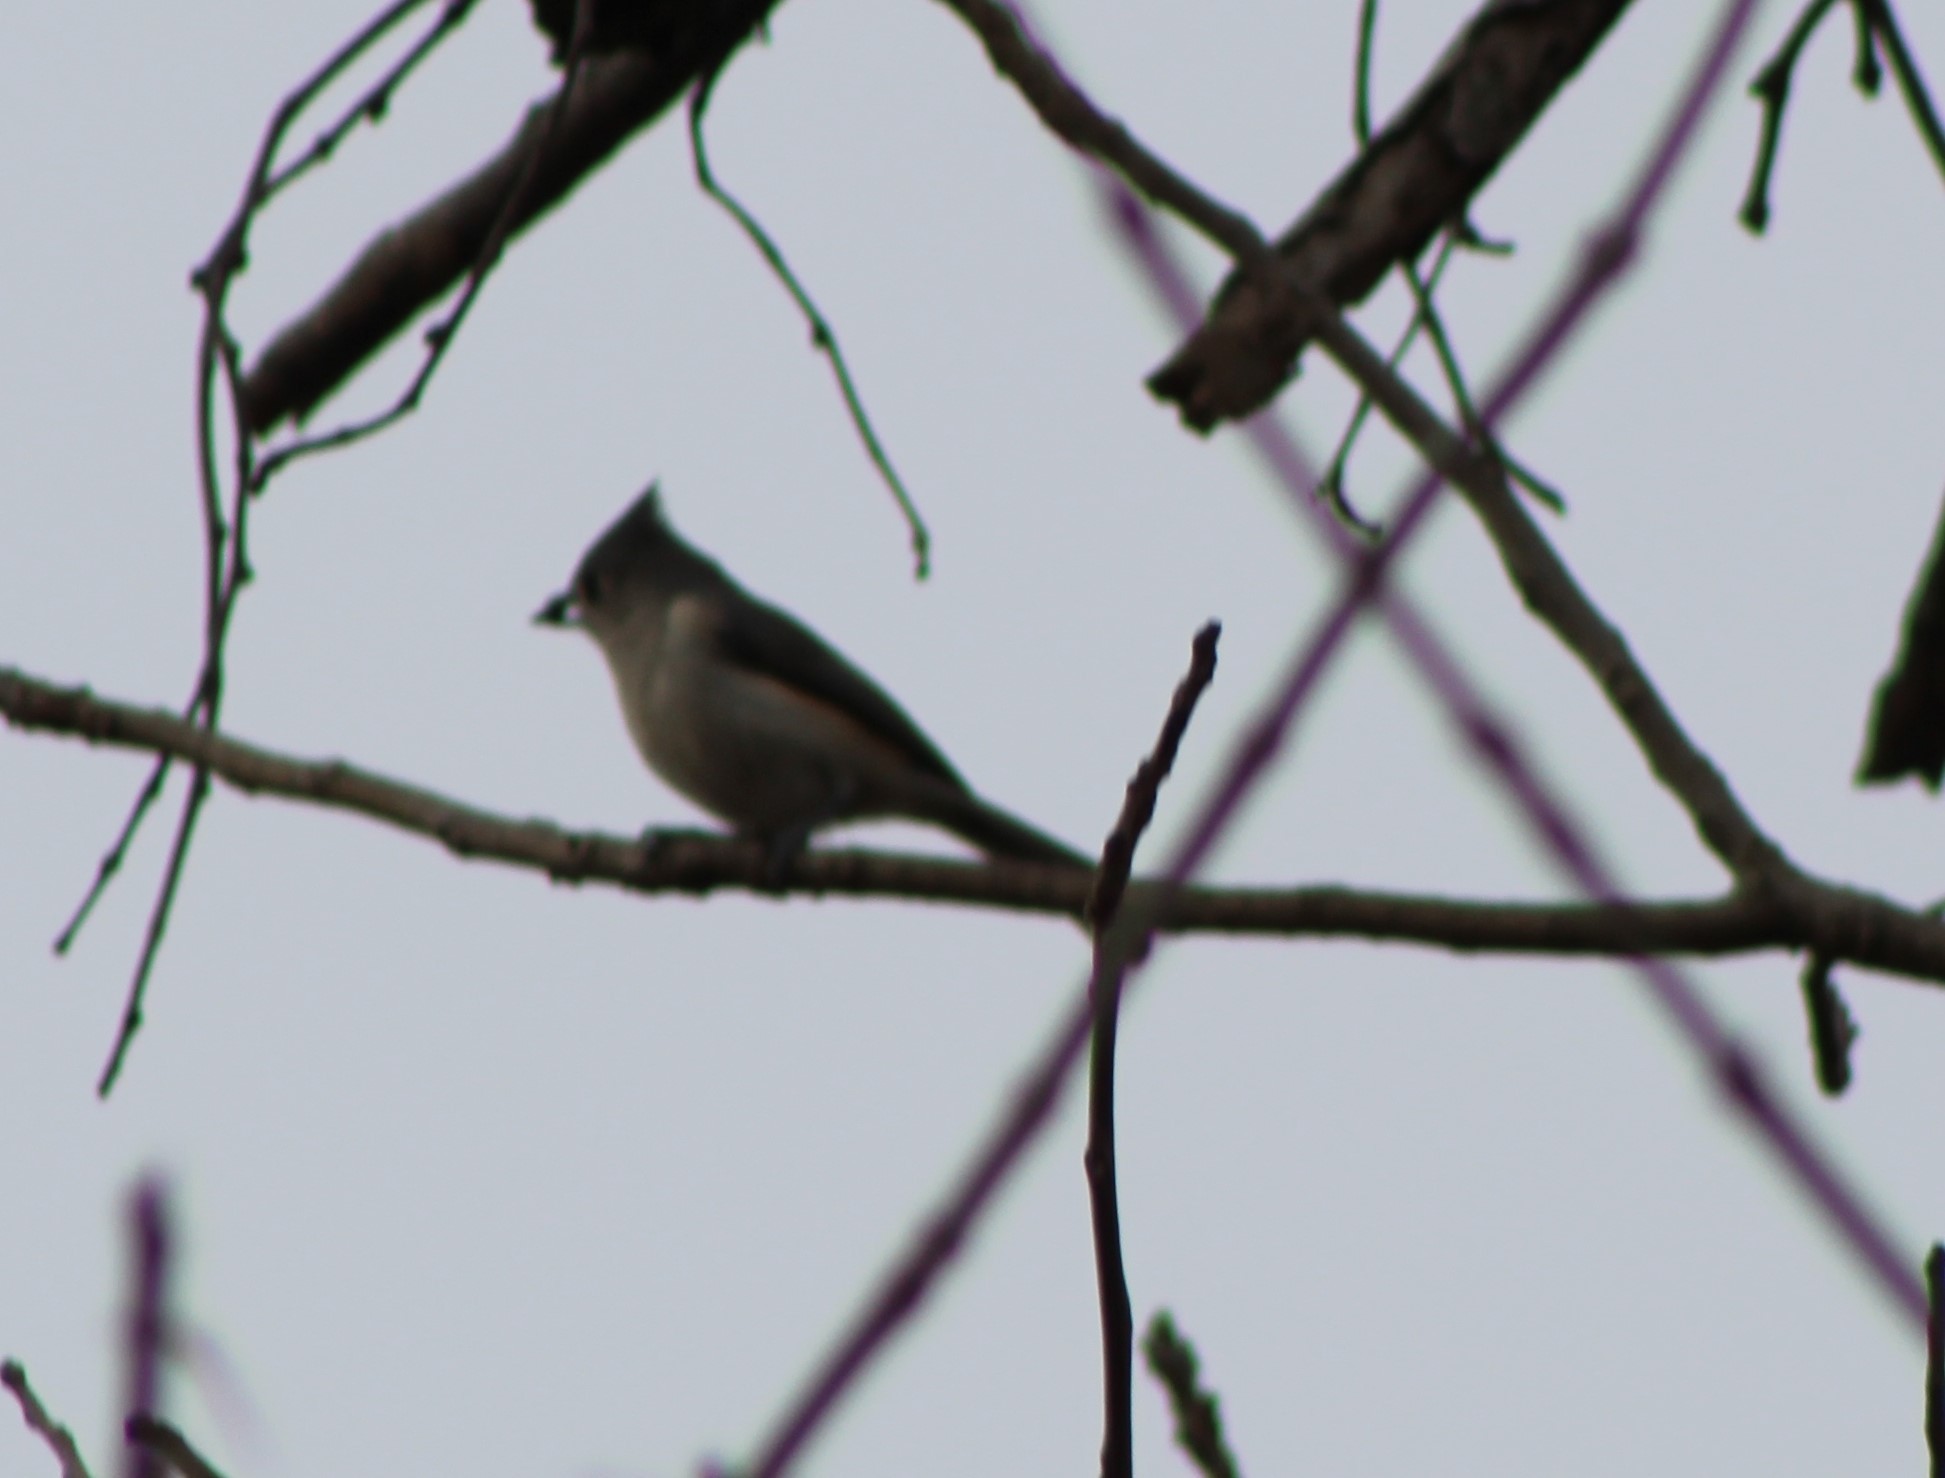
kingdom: Animalia
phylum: Chordata
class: Aves
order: Passeriformes
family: Paridae
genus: Baeolophus
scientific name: Baeolophus bicolor
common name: Tufted titmouse
